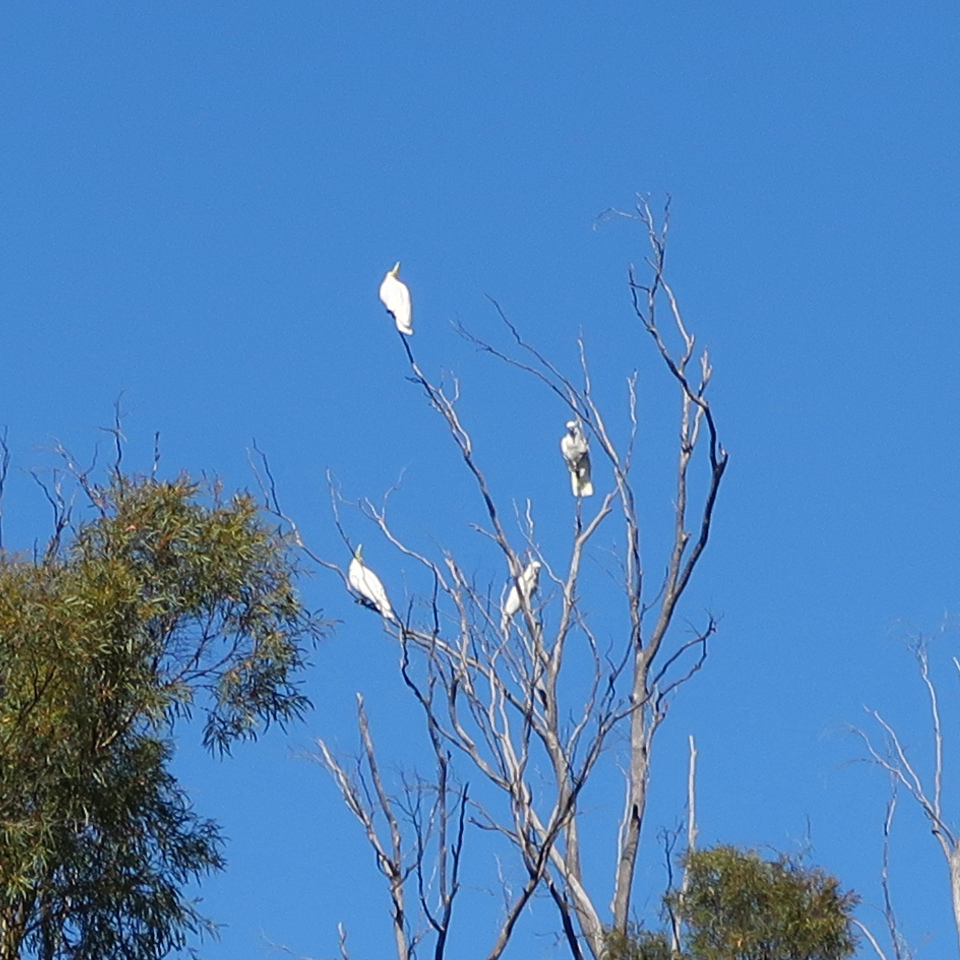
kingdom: Animalia
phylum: Chordata
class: Aves
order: Psittaciformes
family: Psittacidae
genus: Cacatua
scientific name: Cacatua galerita
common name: Sulphur-crested cockatoo
